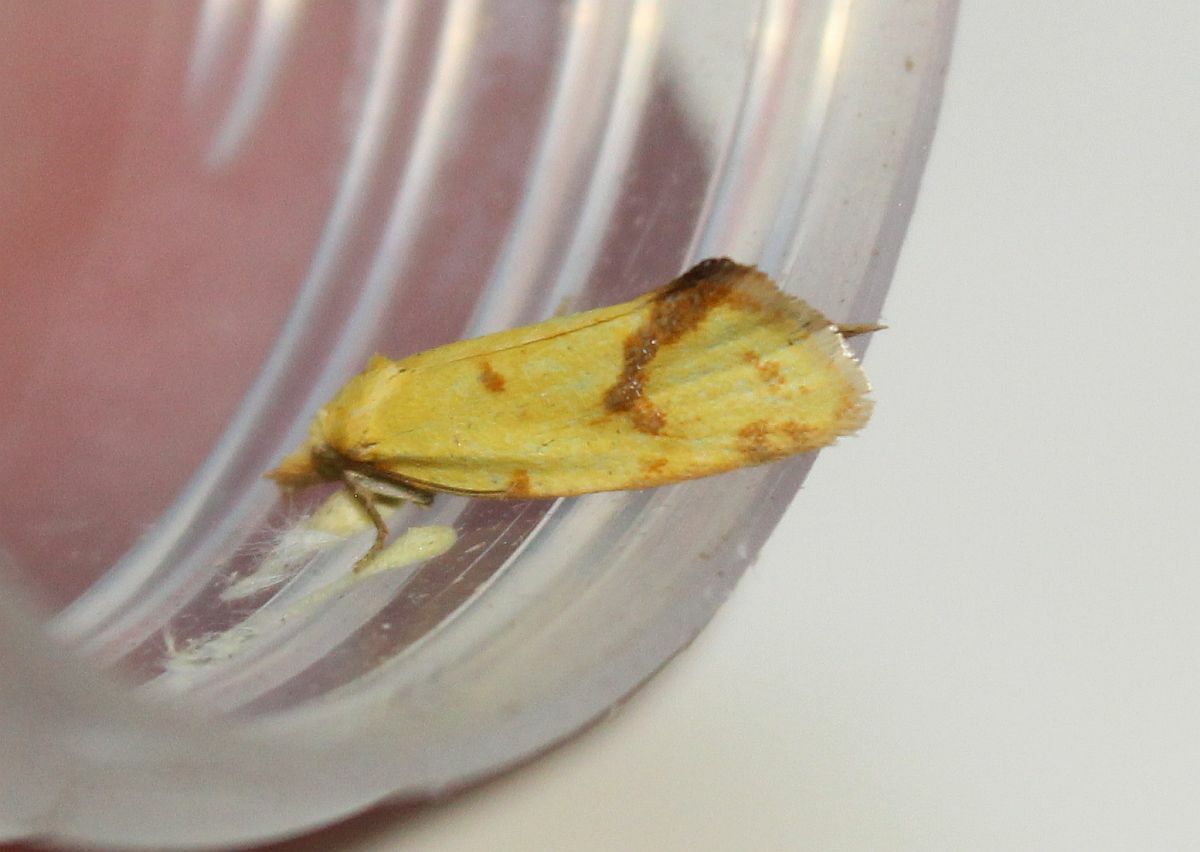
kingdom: Animalia
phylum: Arthropoda
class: Insecta
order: Lepidoptera
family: Tortricidae
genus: Agapeta
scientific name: Agapeta hamana
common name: Common yellow conch
